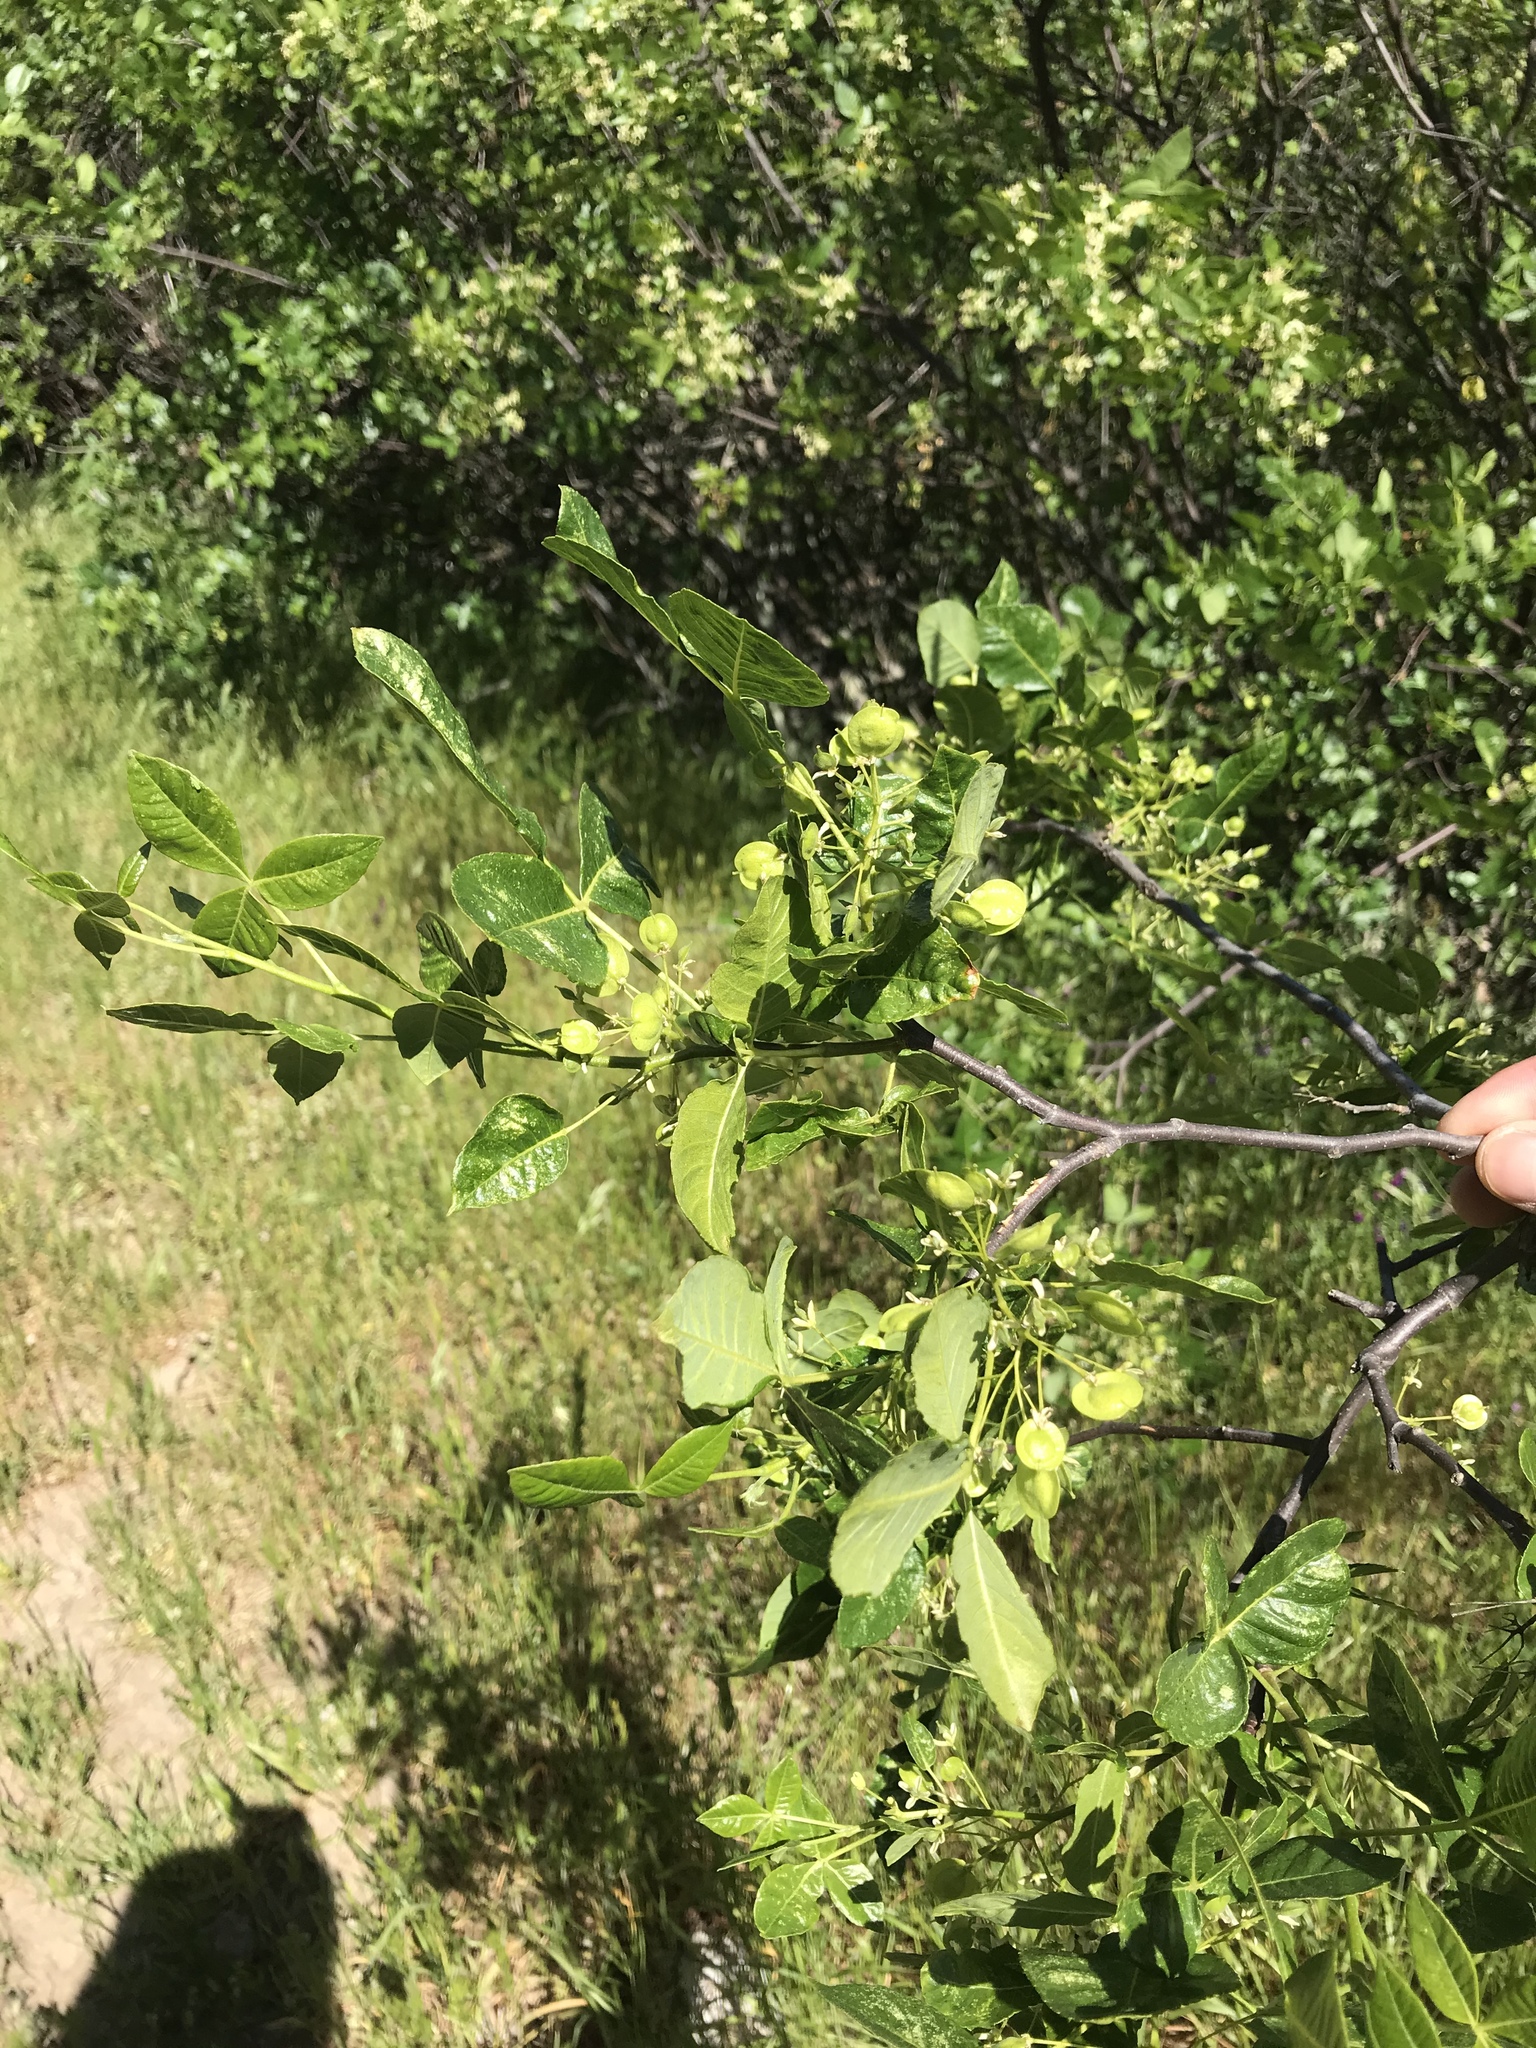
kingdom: Plantae
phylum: Tracheophyta
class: Magnoliopsida
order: Sapindales
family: Rutaceae
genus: Ptelea
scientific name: Ptelea crenulata
